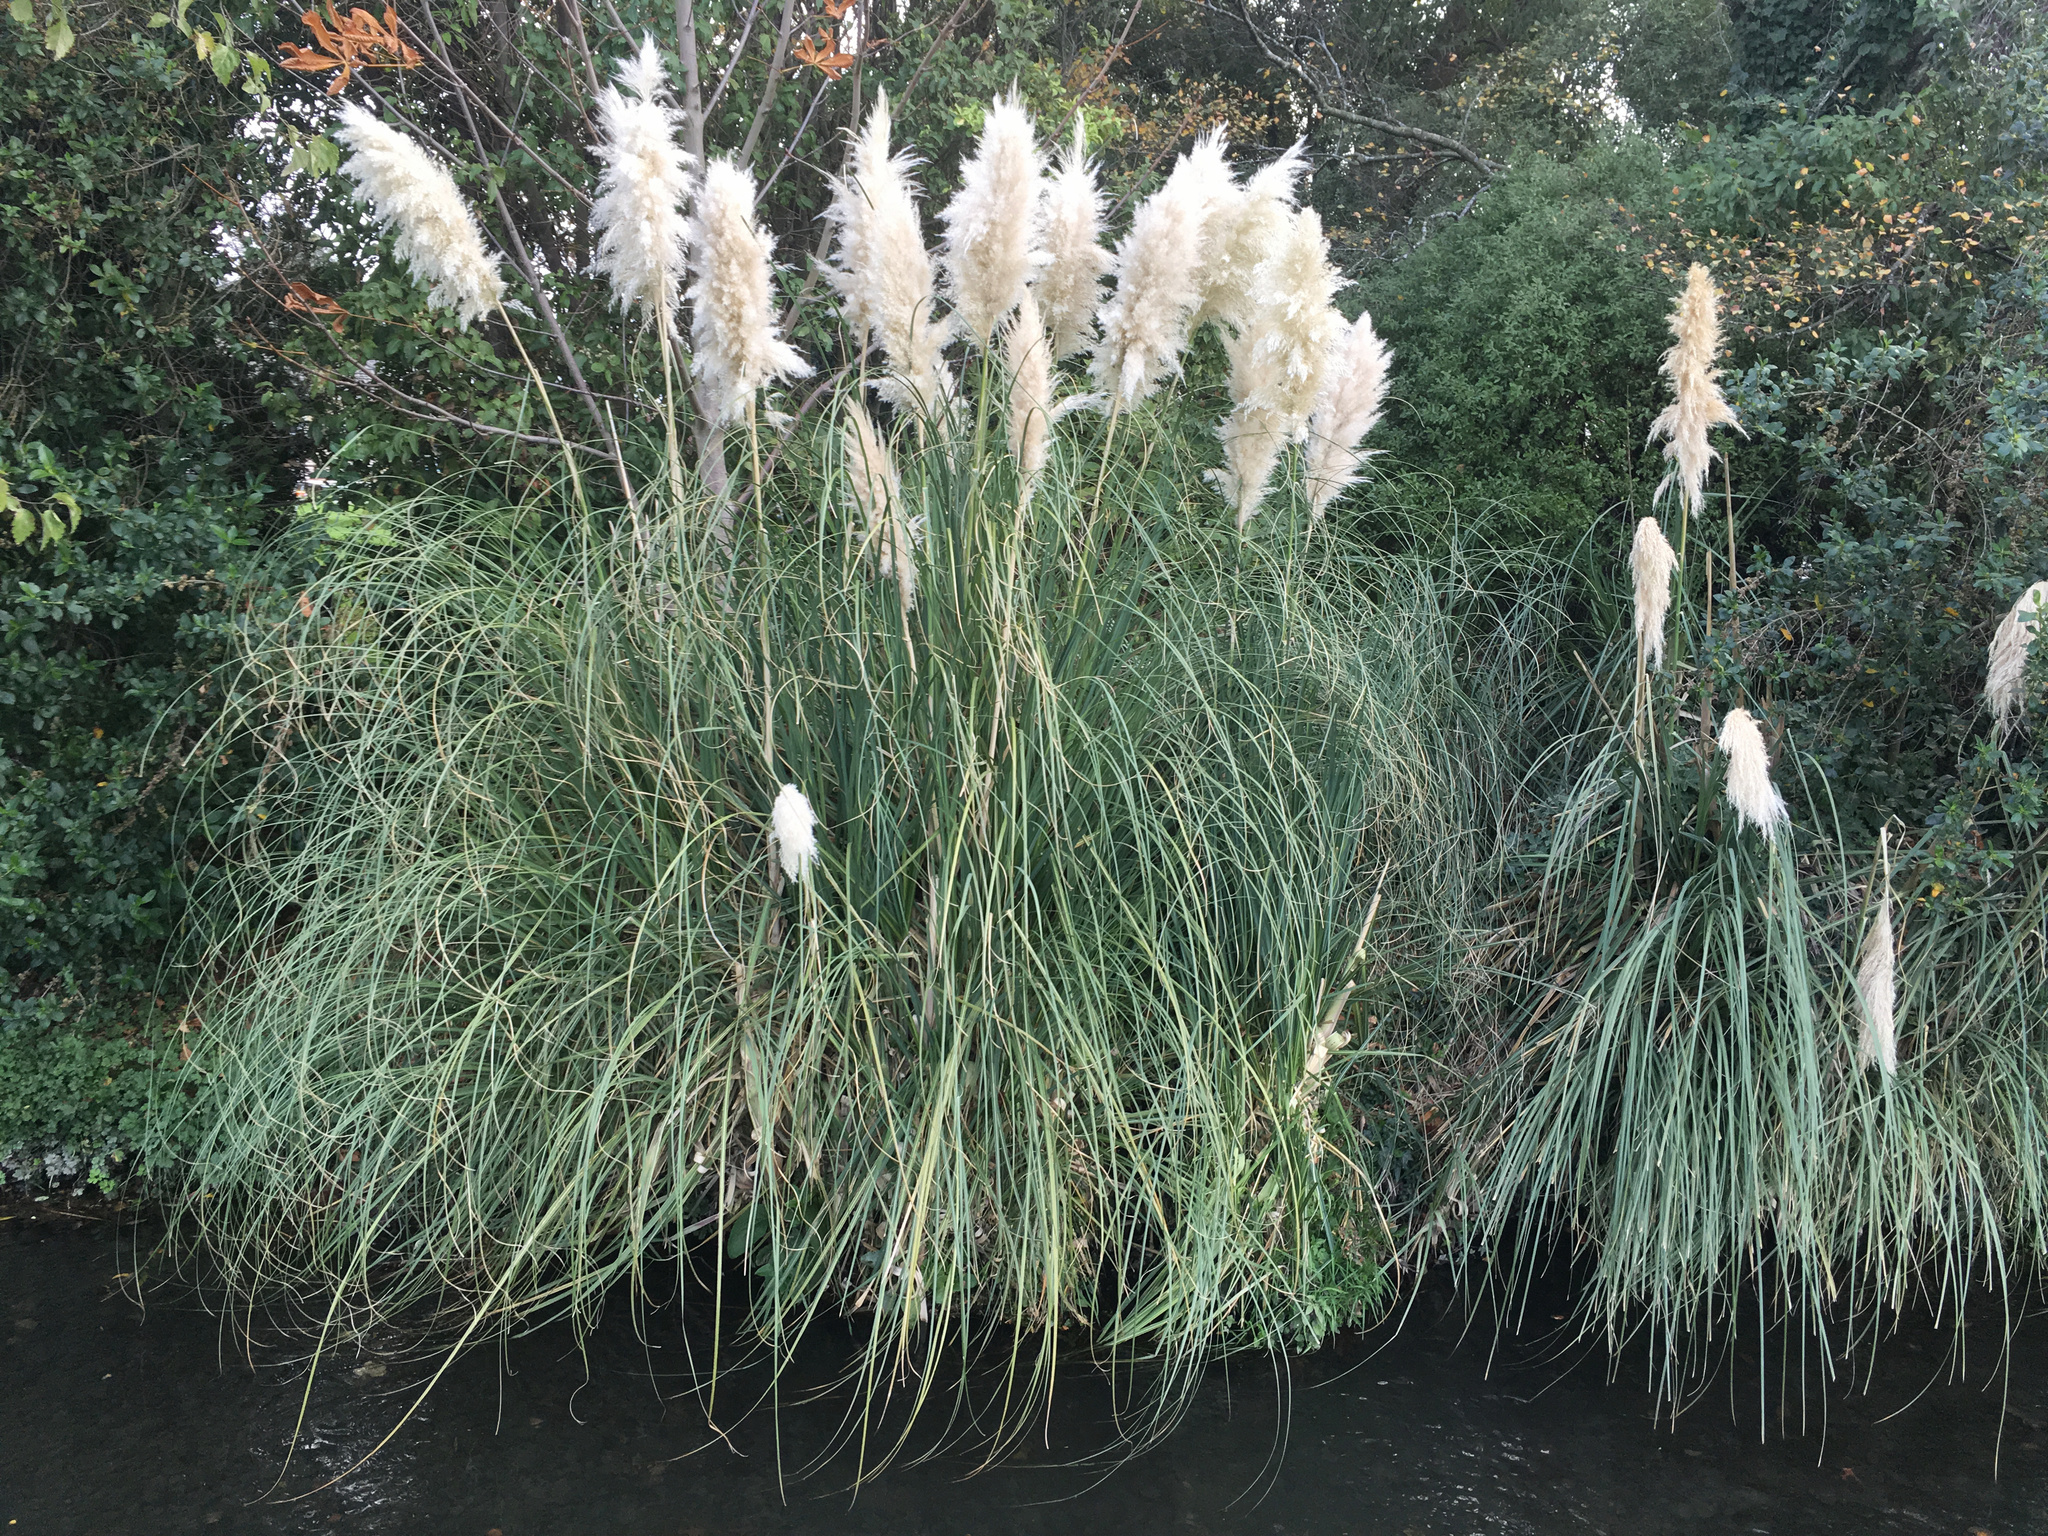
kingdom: Plantae
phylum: Tracheophyta
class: Liliopsida
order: Poales
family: Poaceae
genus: Cortaderia
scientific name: Cortaderia selloana
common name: Uruguayan pampas grass
